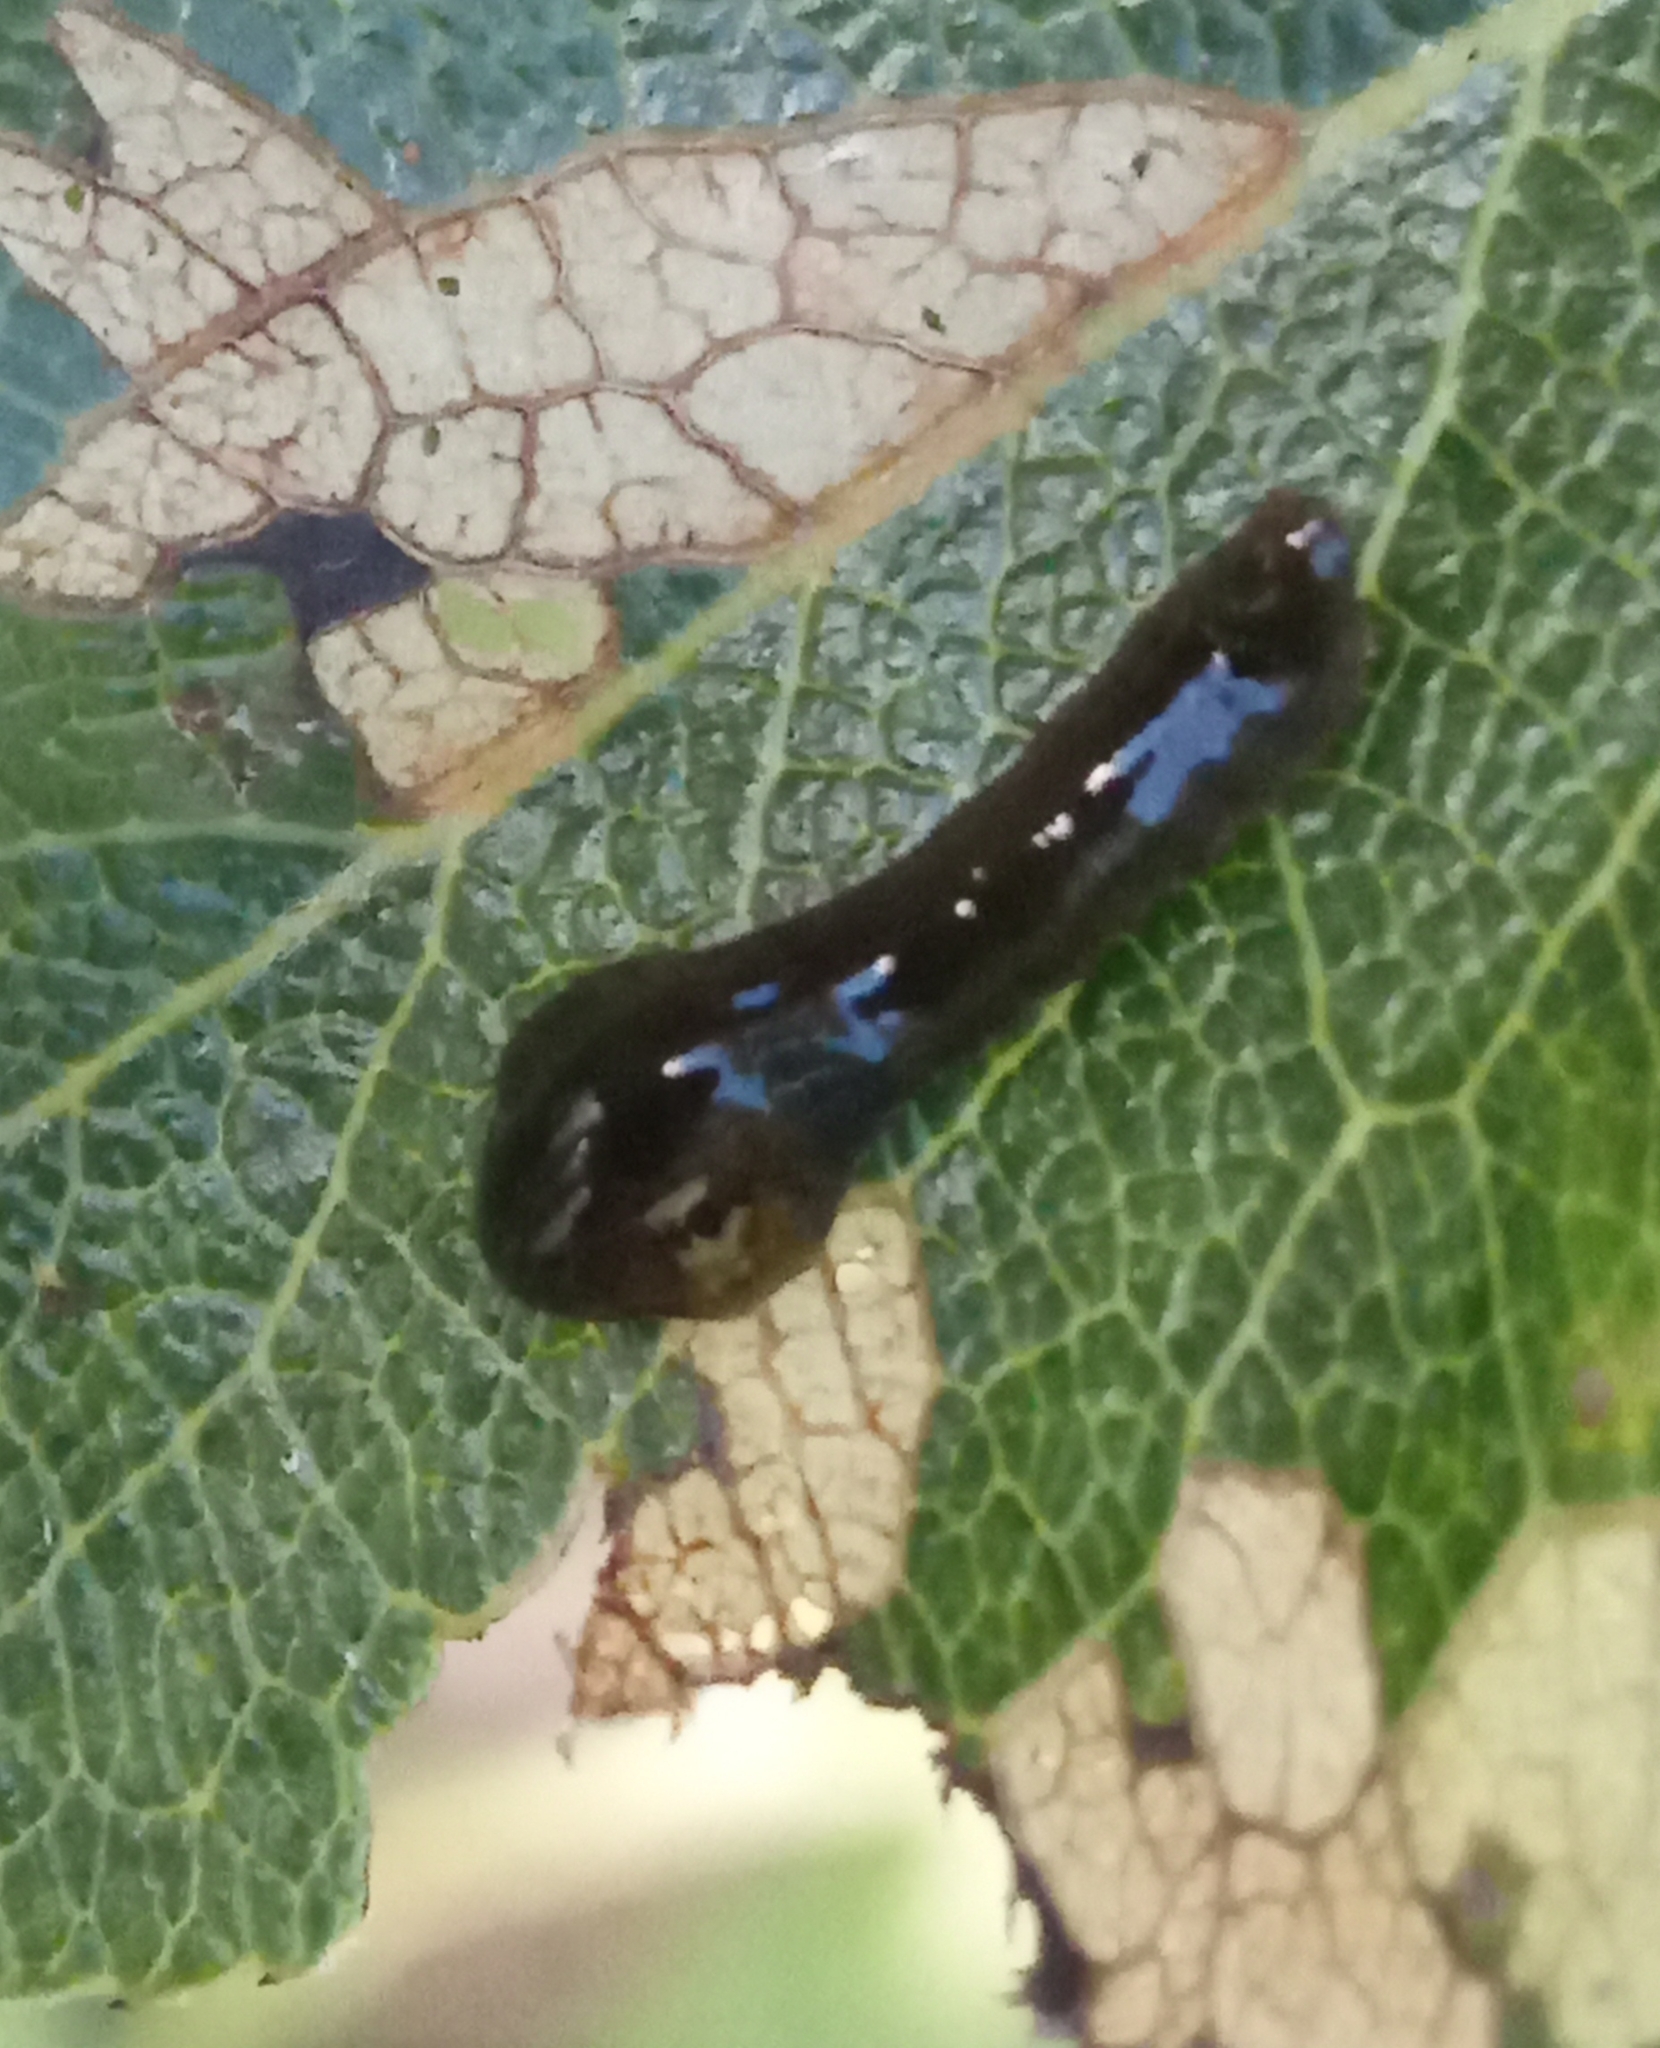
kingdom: Animalia
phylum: Arthropoda
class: Insecta
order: Hymenoptera
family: Tenthredinidae
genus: Caliroa
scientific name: Caliroa cerasi
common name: Pear sawfly
